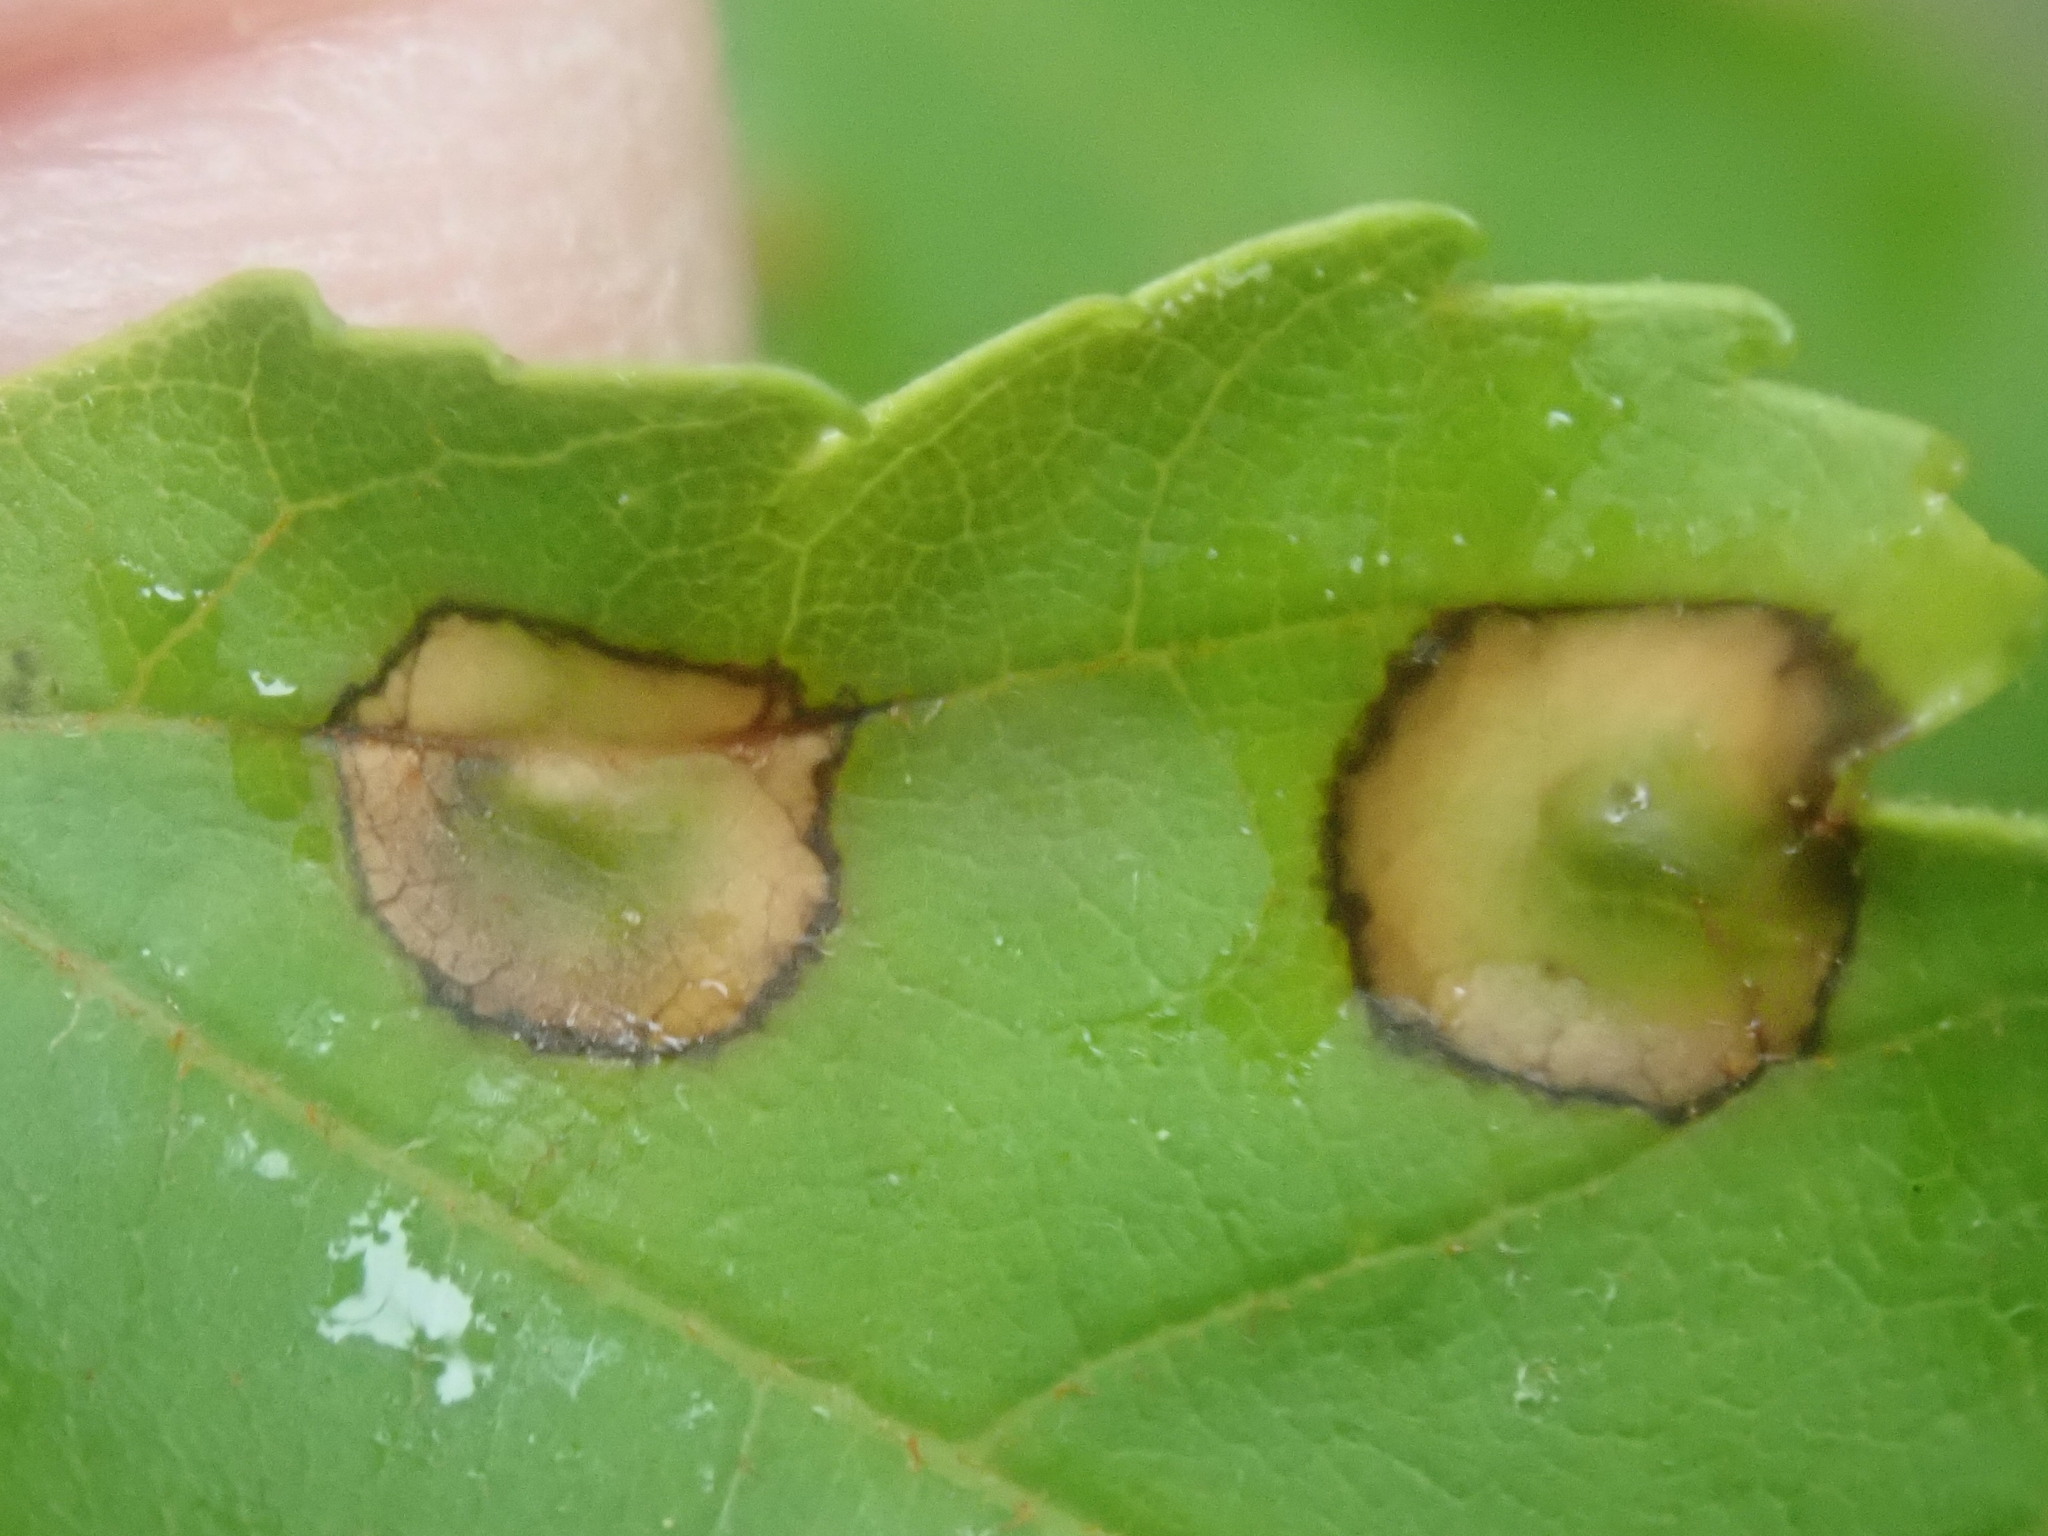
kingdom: Animalia
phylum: Arthropoda
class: Insecta
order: Diptera
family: Cecidomyiidae
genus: Acericecis
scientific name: Acericecis ocellaris
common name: Ocellate gall midge
